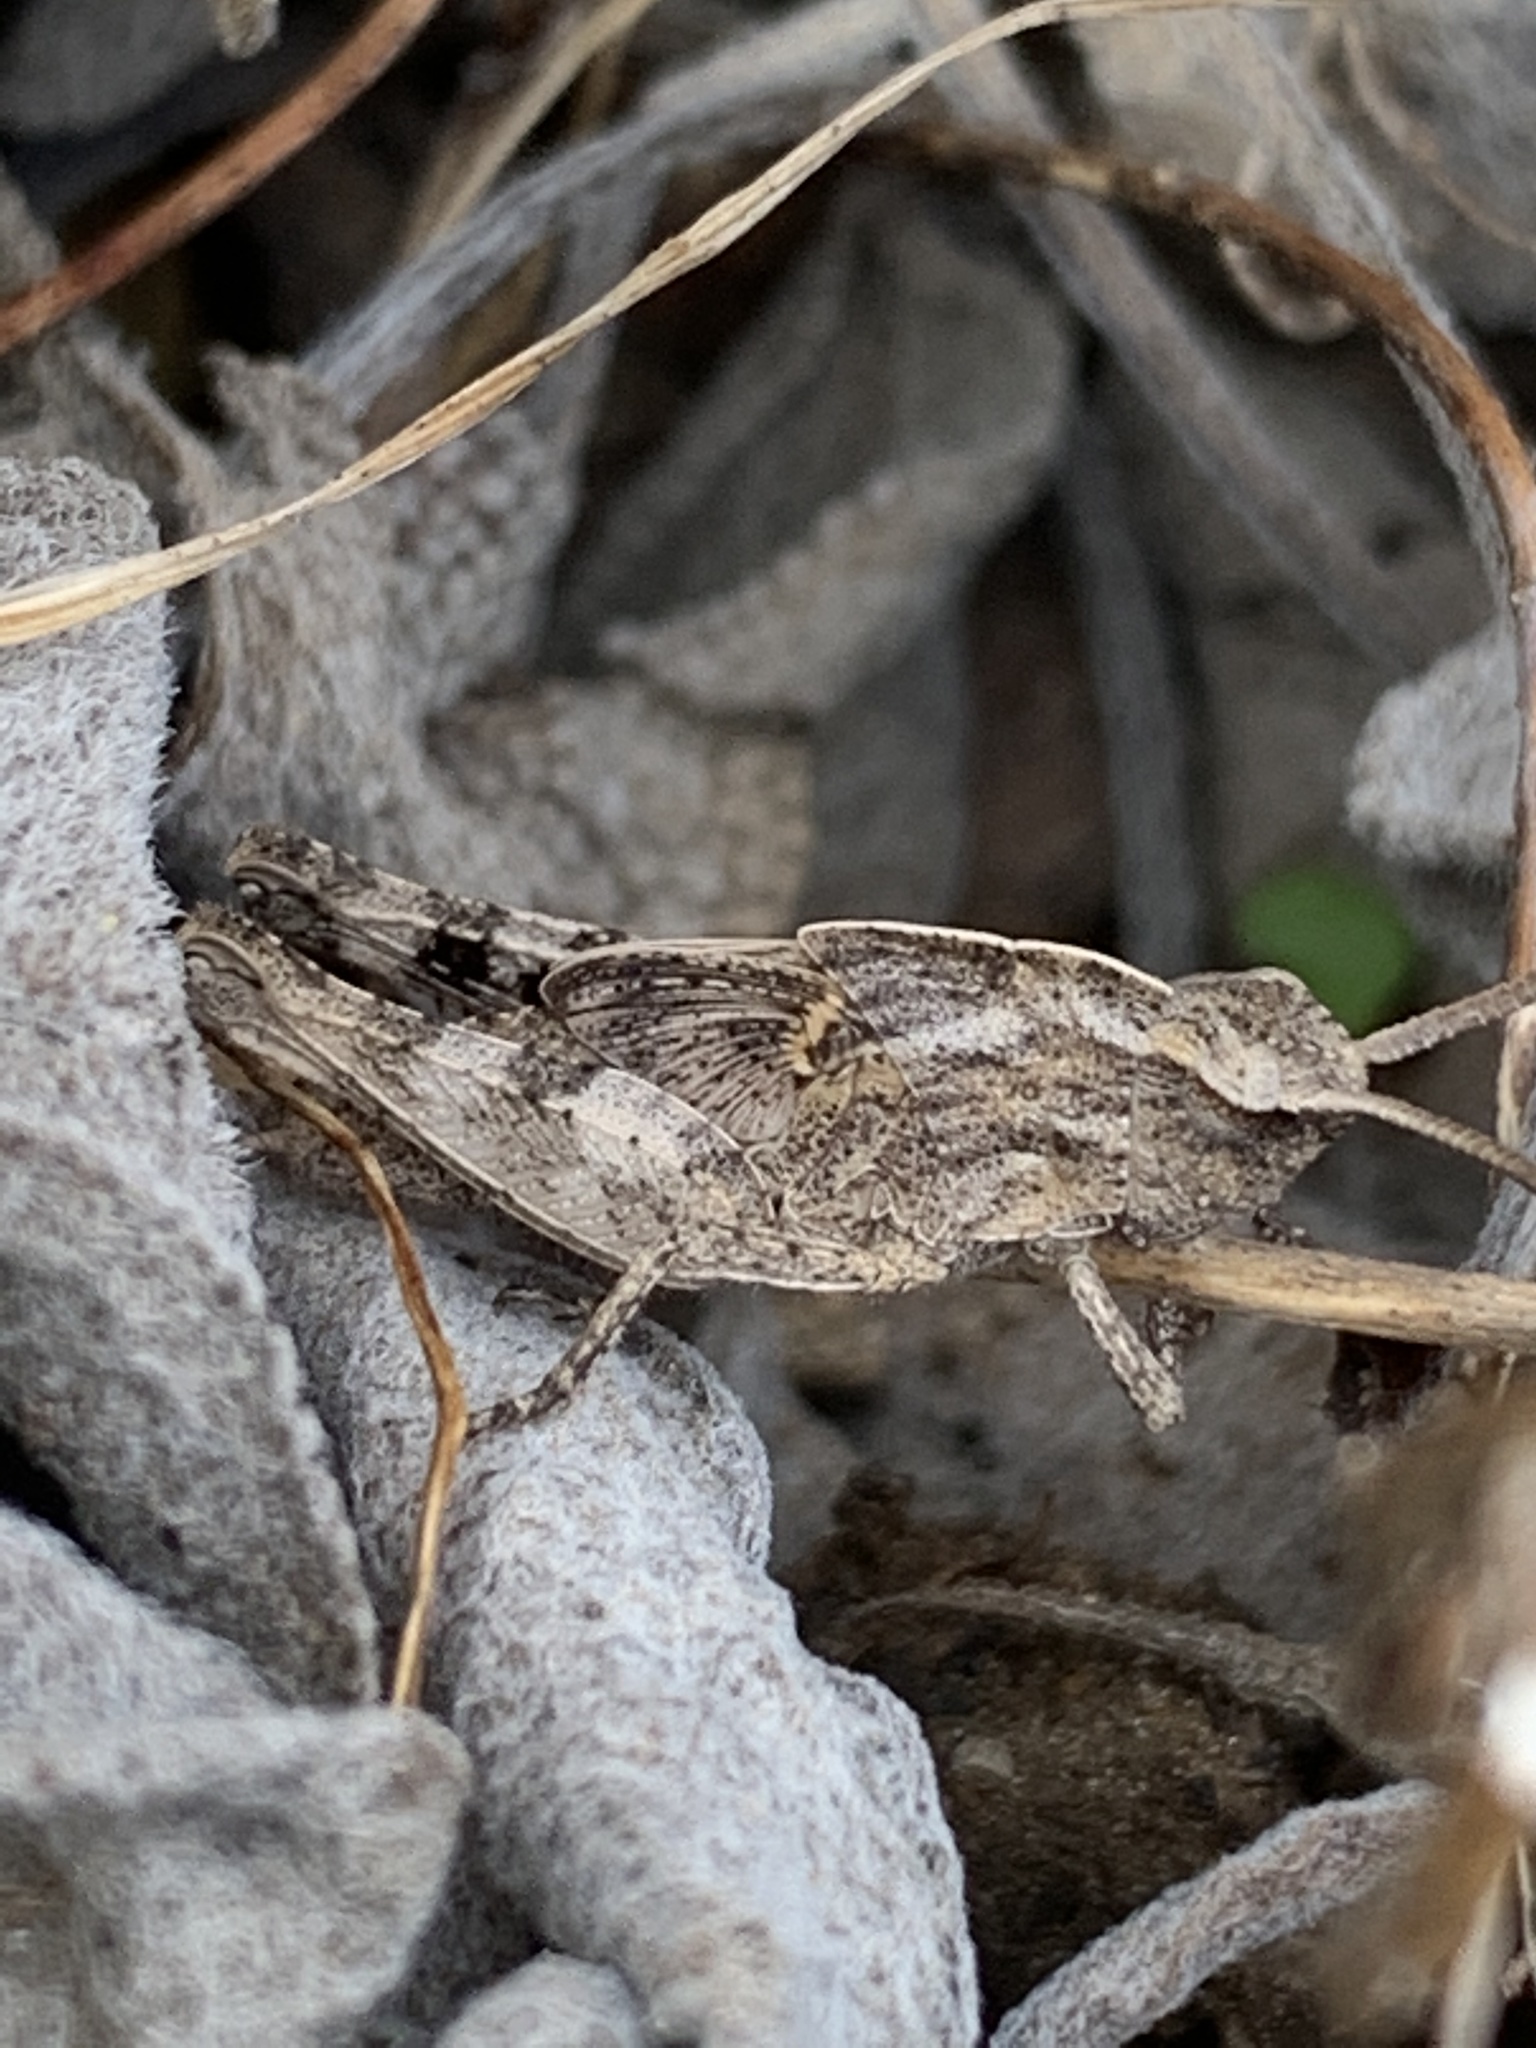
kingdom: Animalia
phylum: Arthropoda
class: Insecta
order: Orthoptera
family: Acrididae
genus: Chortophaga
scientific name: Chortophaga viridifasciata
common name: Green-striped grasshopper
